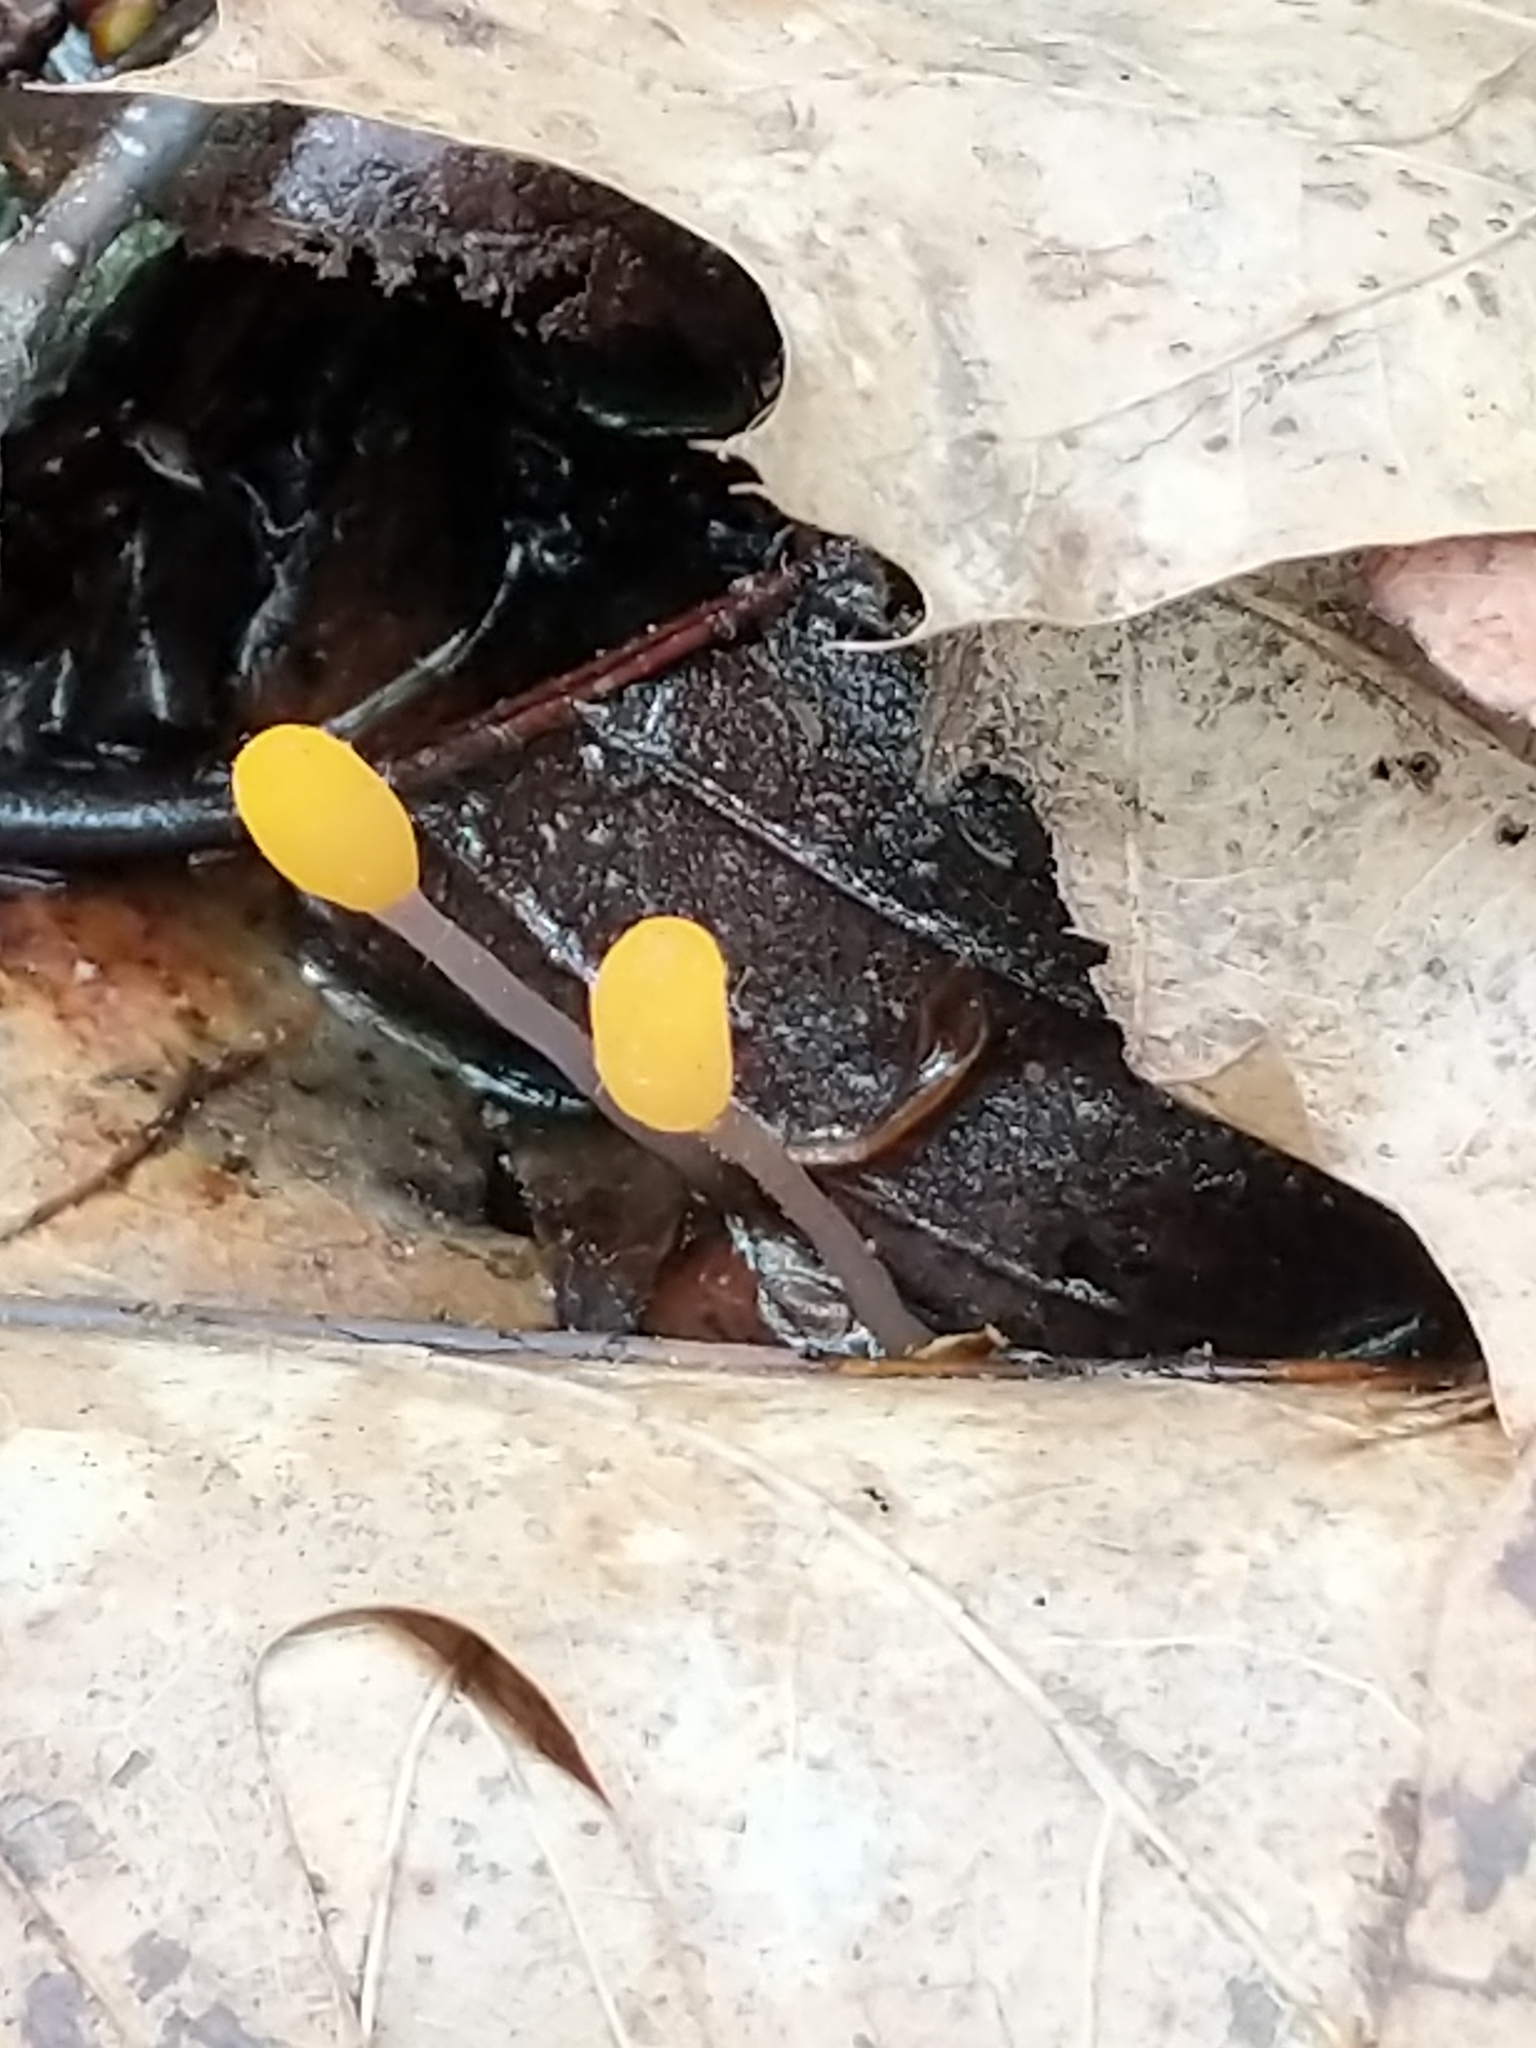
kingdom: Fungi
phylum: Ascomycota
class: Leotiomycetes
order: Helotiales
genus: Mitrula
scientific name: Mitrula
